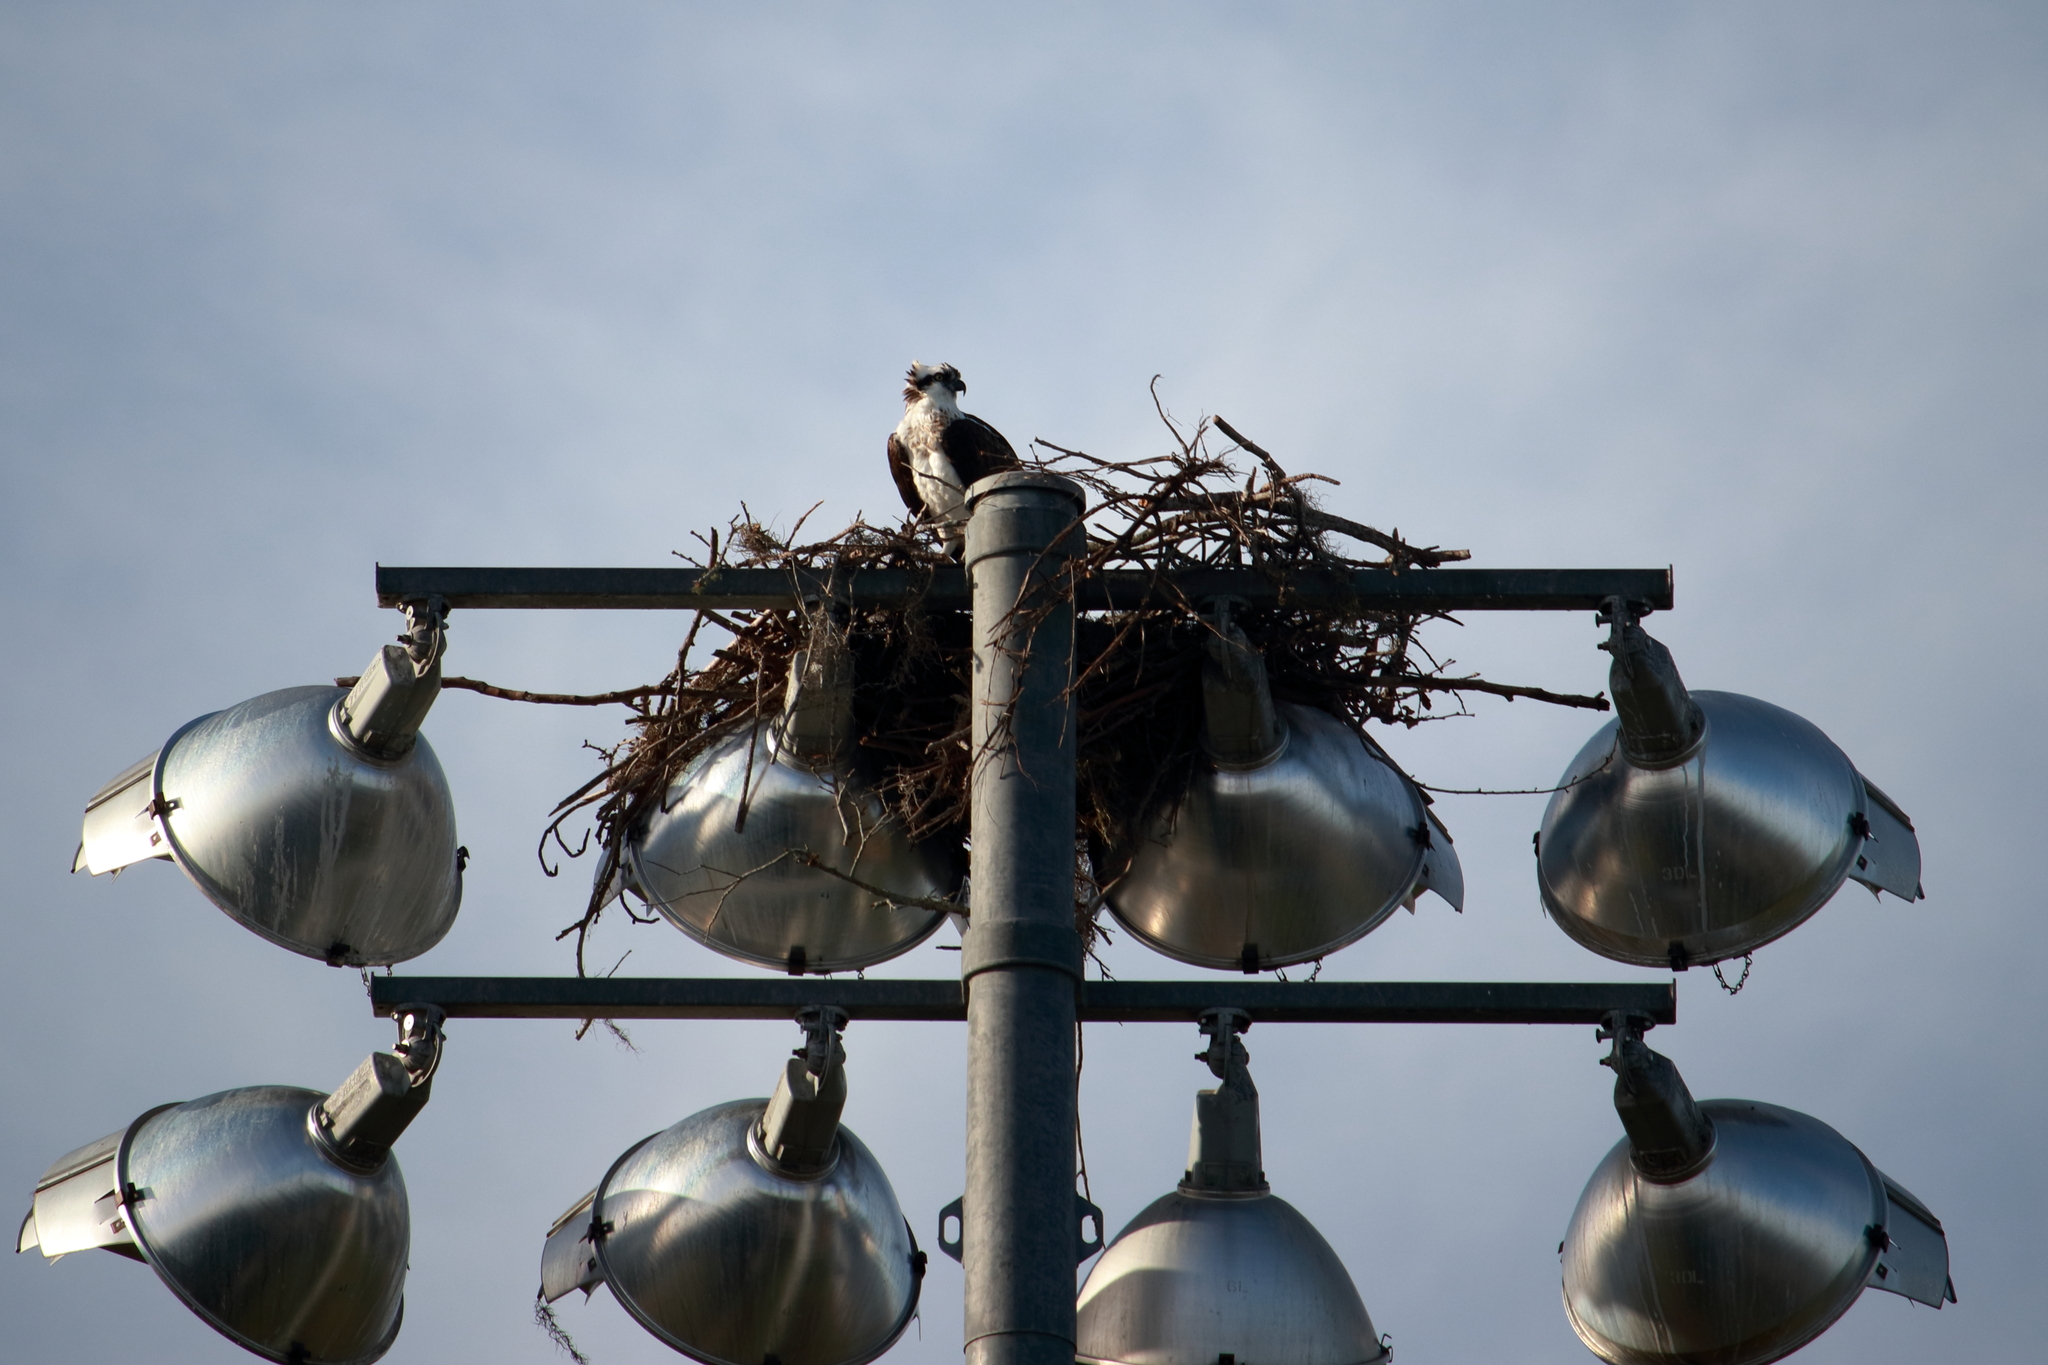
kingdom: Animalia
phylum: Chordata
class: Aves
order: Accipitriformes
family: Pandionidae
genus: Pandion
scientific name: Pandion haliaetus
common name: Osprey
